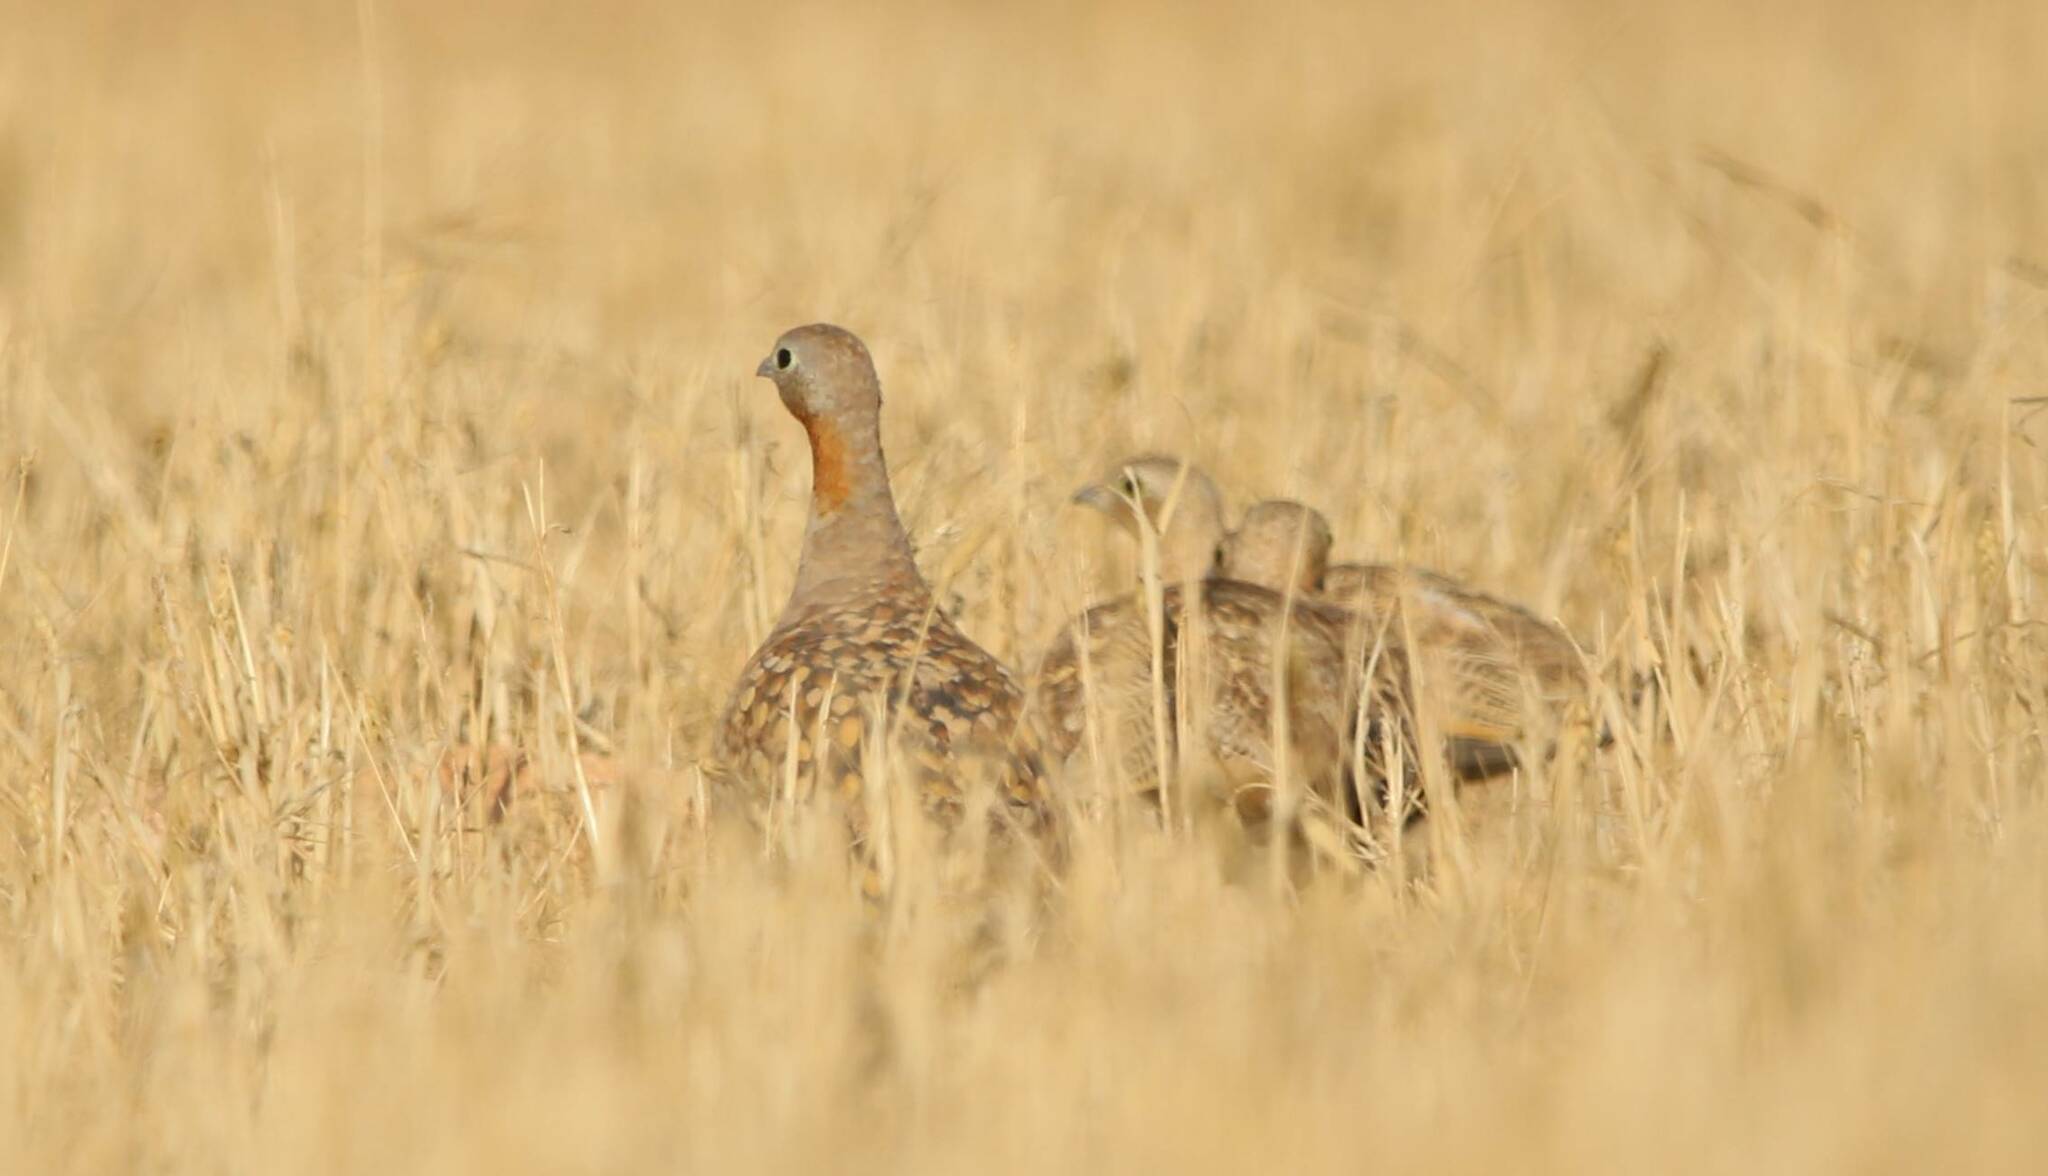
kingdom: Animalia
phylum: Chordata
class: Aves
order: Pteroclidiformes
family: Pteroclididae
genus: Pterocles
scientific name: Pterocles orientalis
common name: Black-bellied sandgrouse
